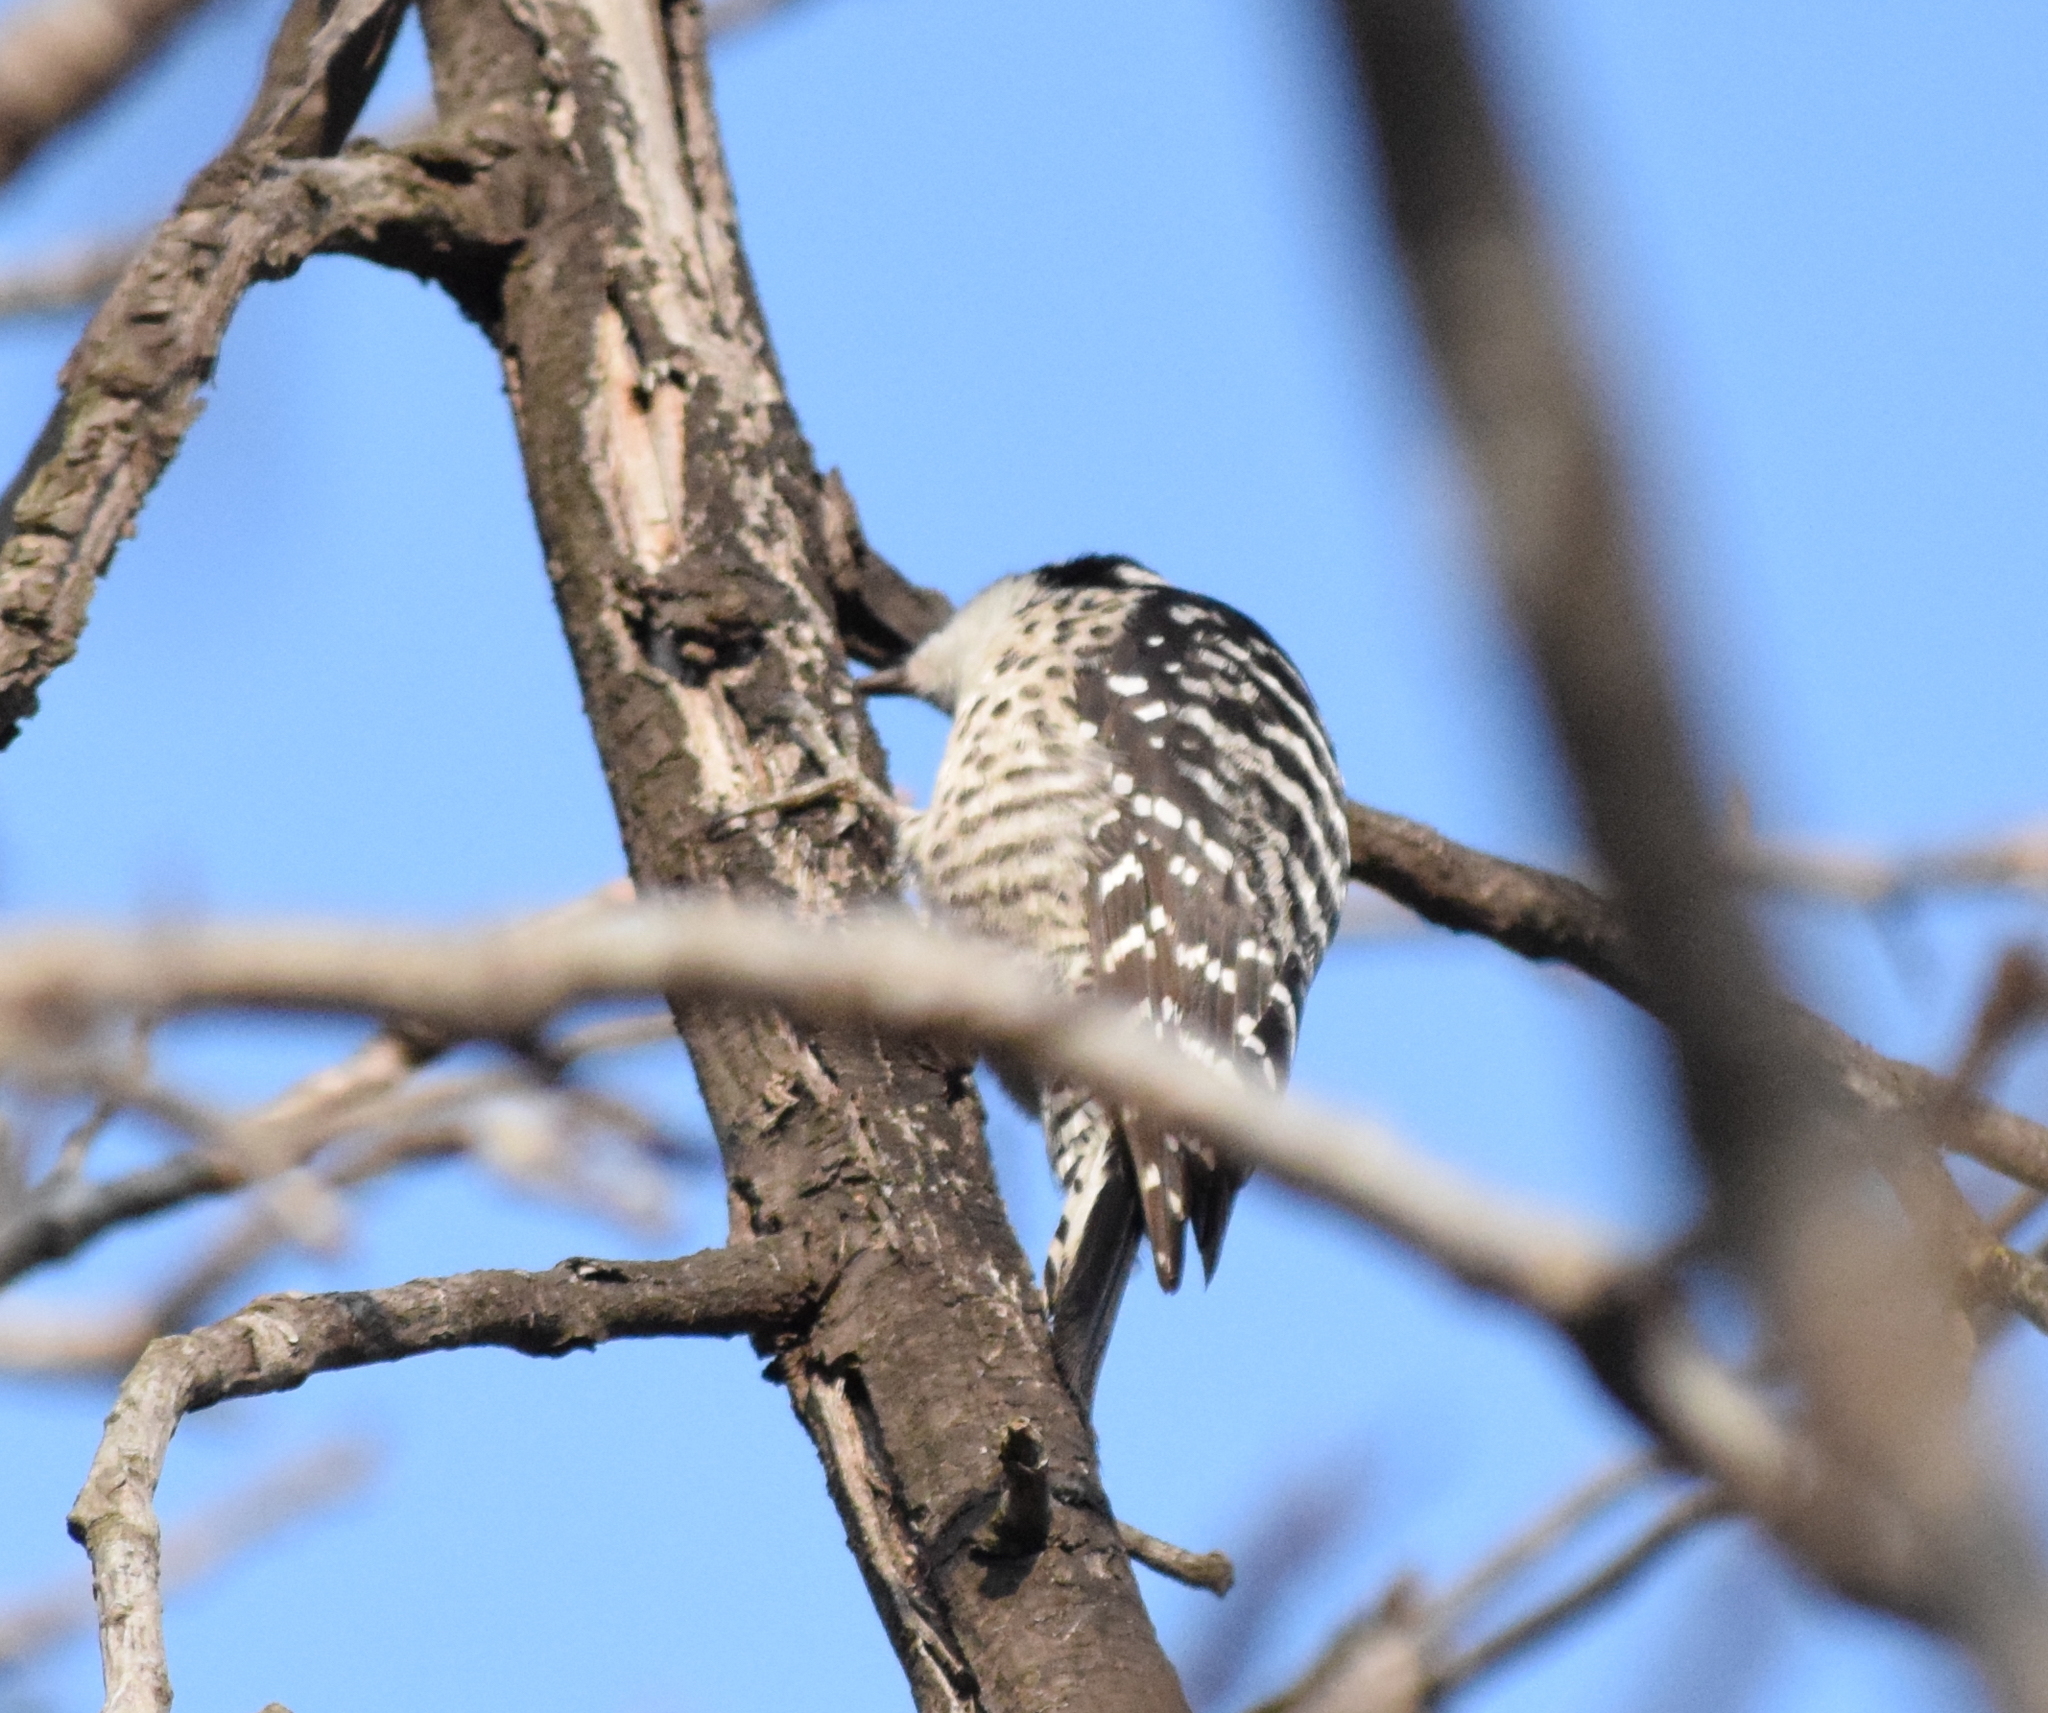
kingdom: Animalia
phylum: Chordata
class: Aves
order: Piciformes
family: Picidae
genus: Dryobates
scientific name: Dryobates nuttallii
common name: Nuttall's woodpecker
